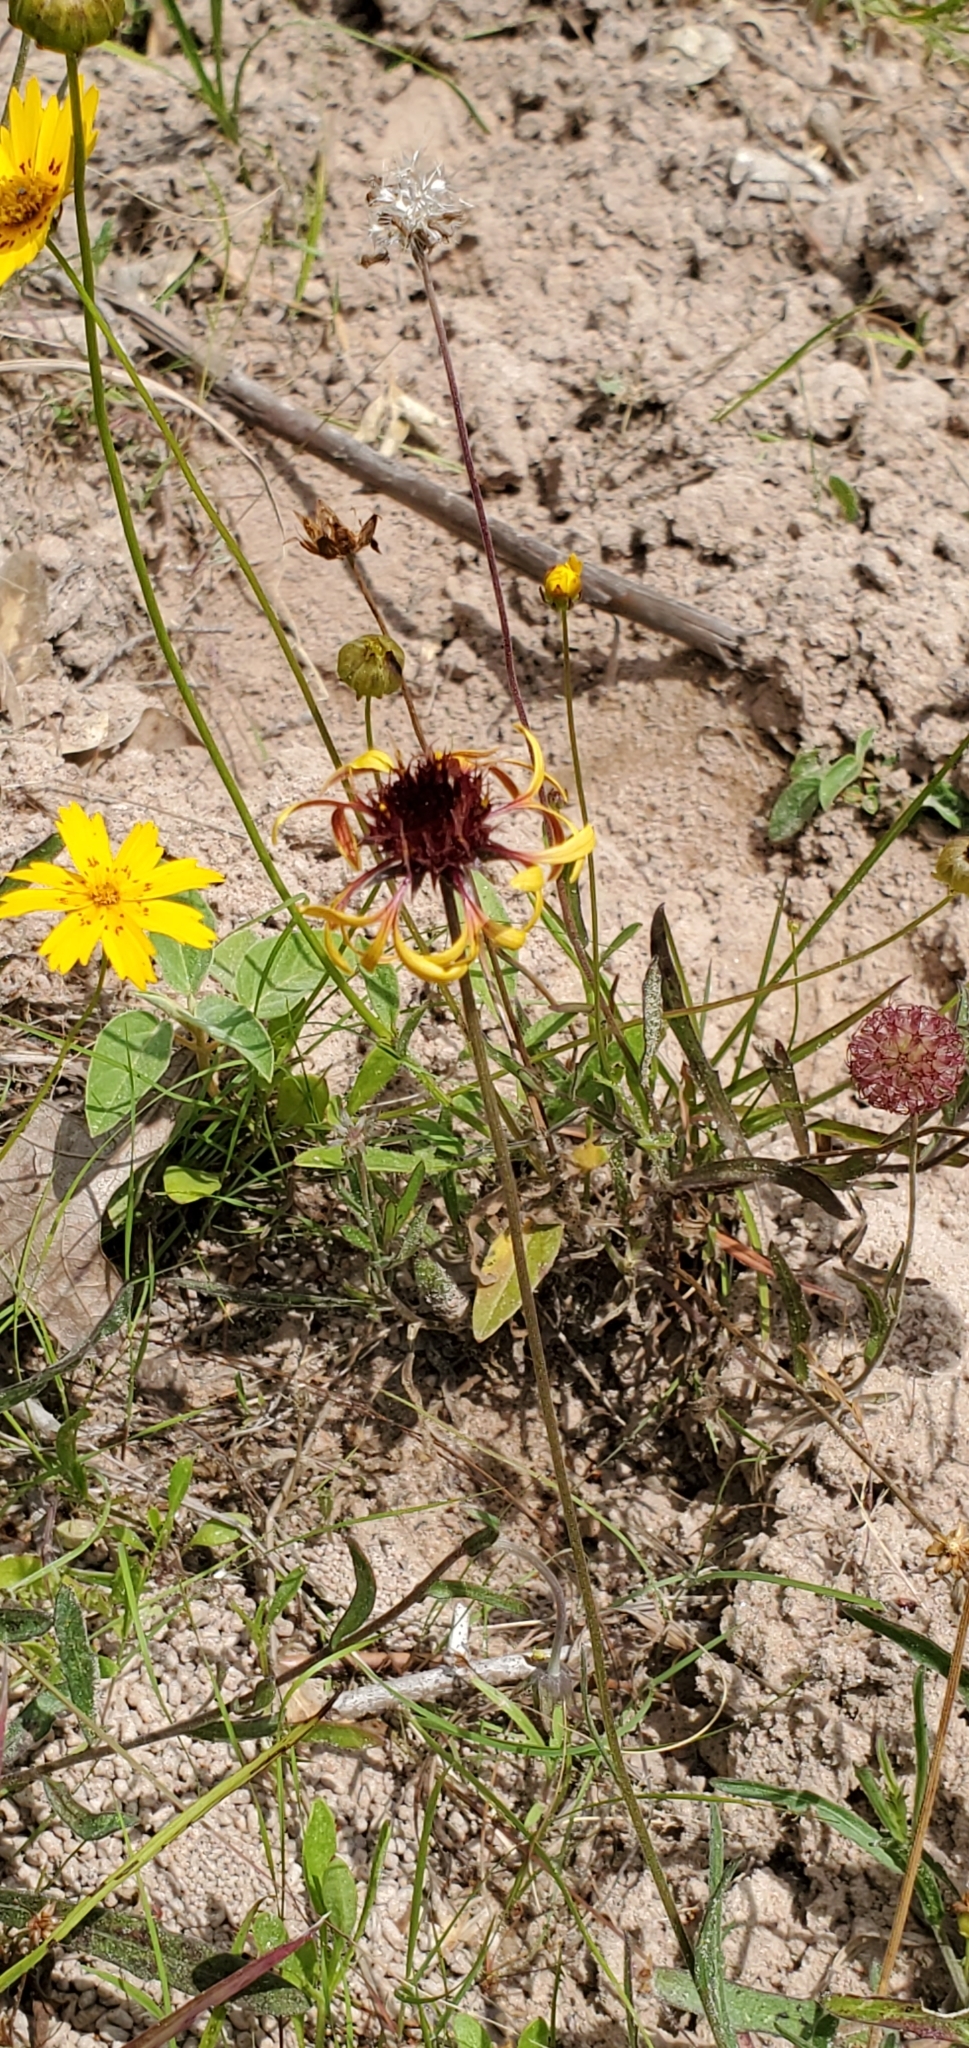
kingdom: Plantae
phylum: Tracheophyta
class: Magnoliopsida
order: Asterales
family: Asteraceae
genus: Gaillardia
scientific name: Gaillardia aestivalis
